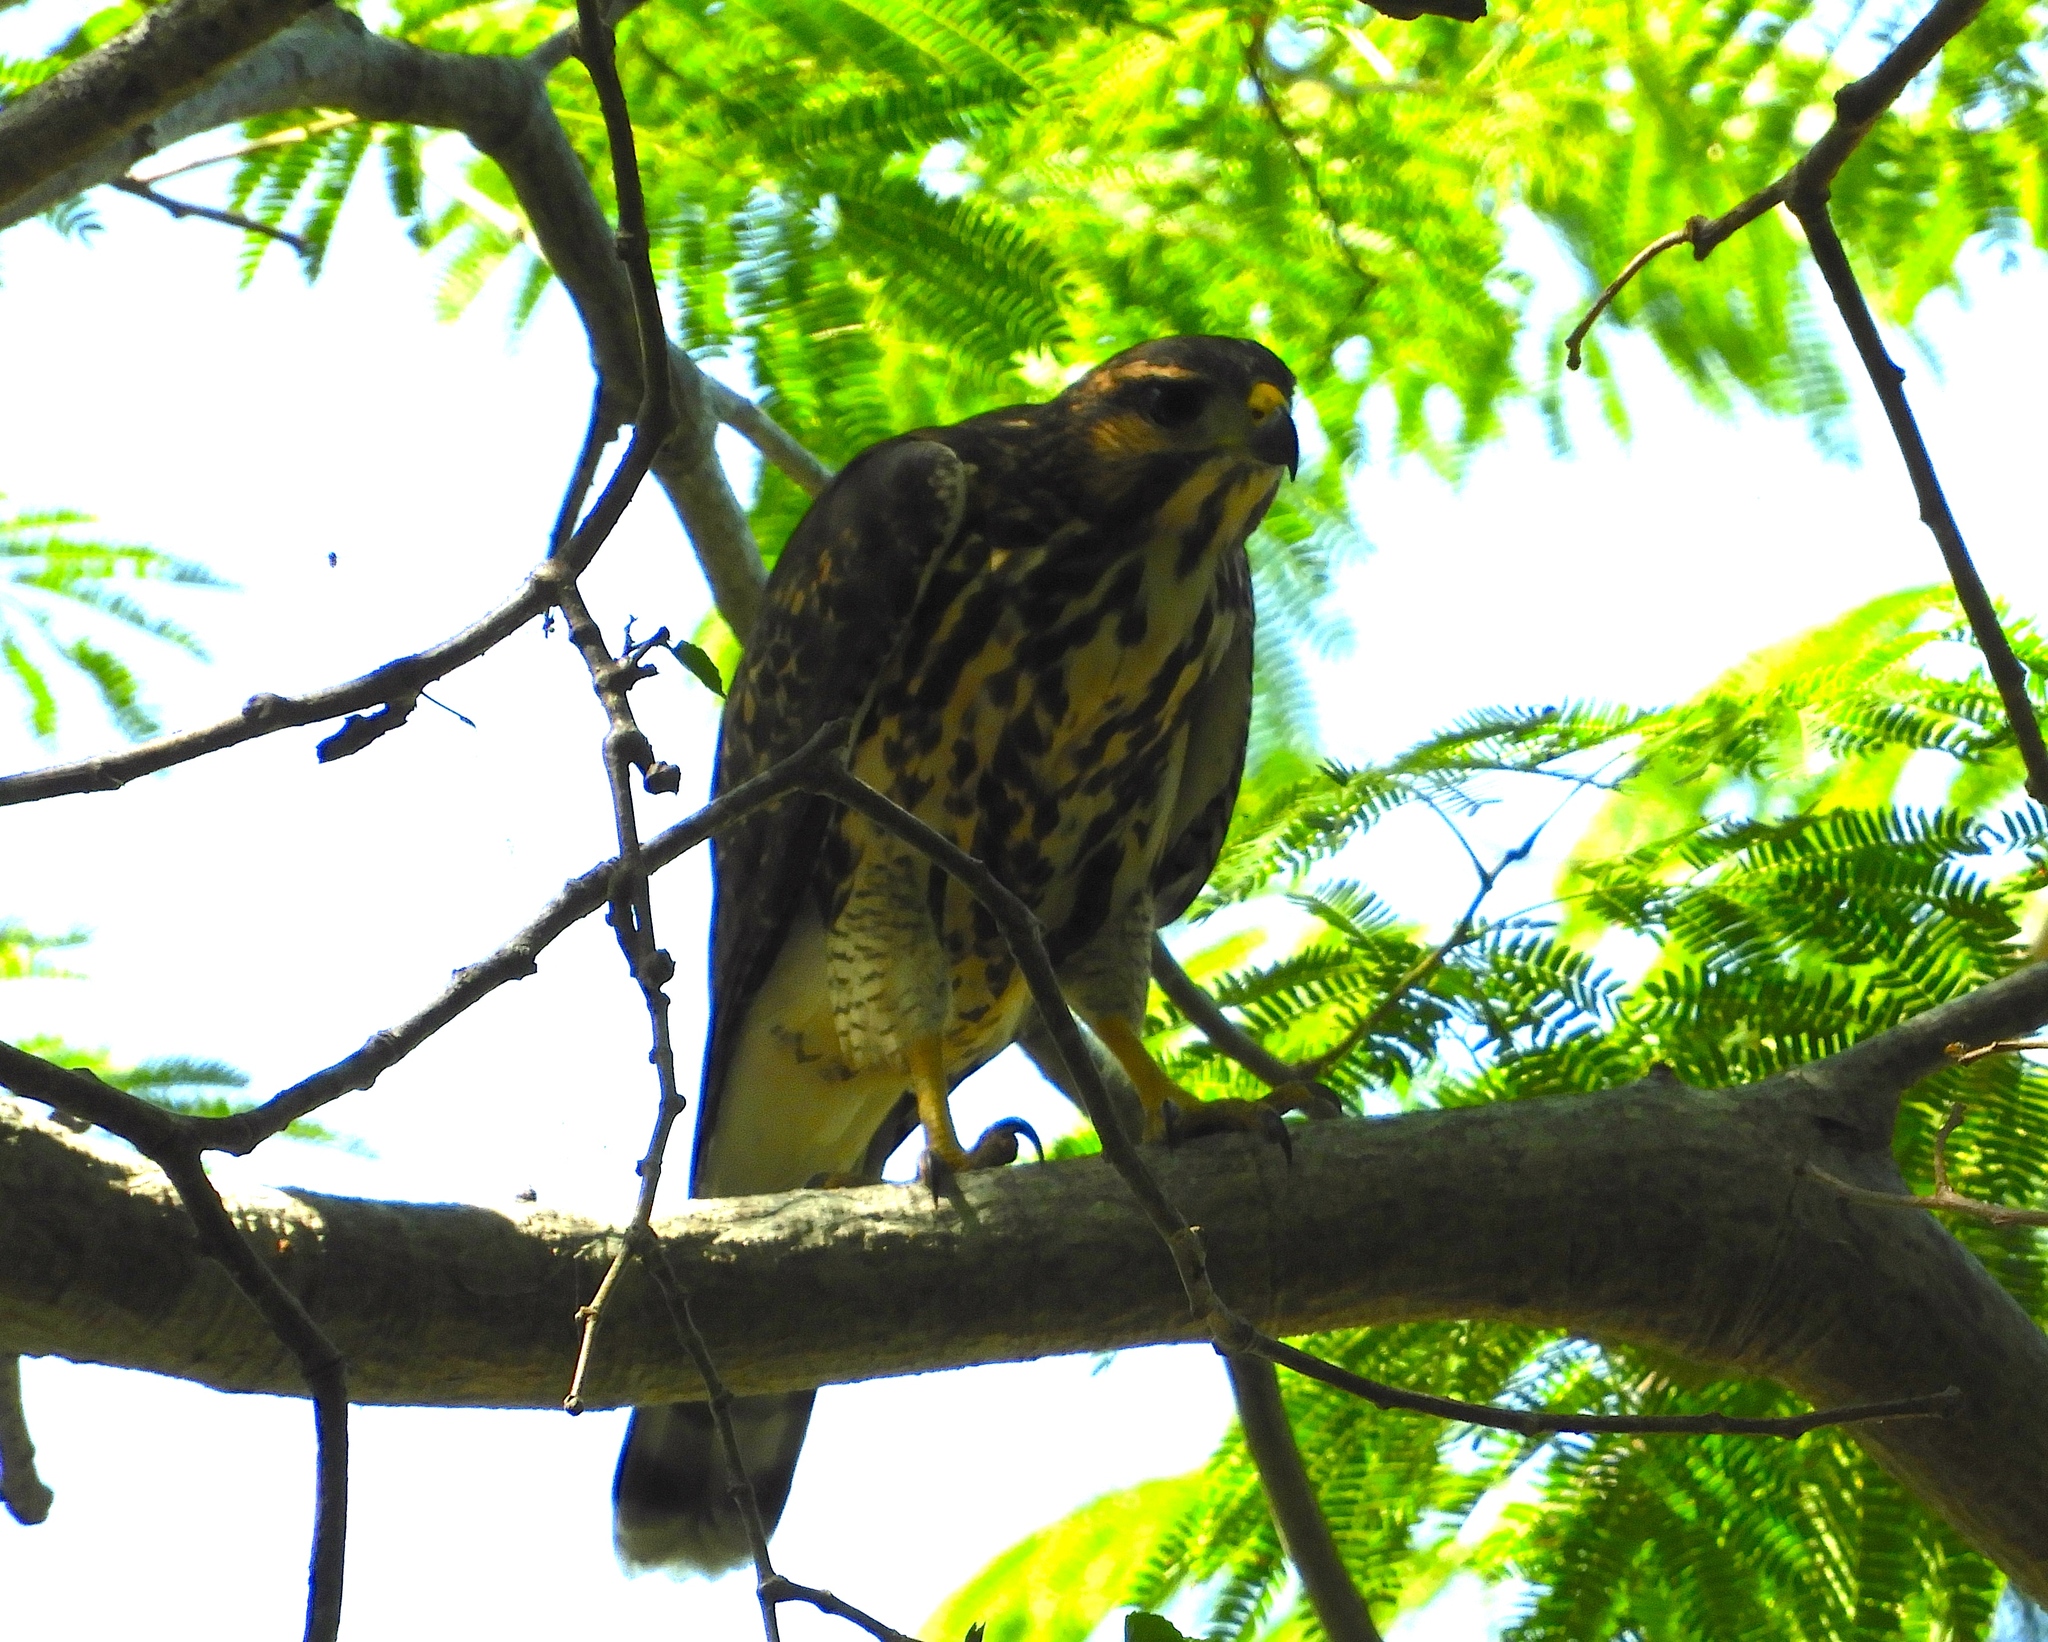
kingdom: Animalia
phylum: Chordata
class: Aves
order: Accipitriformes
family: Accipitridae
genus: Buteo
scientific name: Buteo nitidus
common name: Grey-lined hawk
